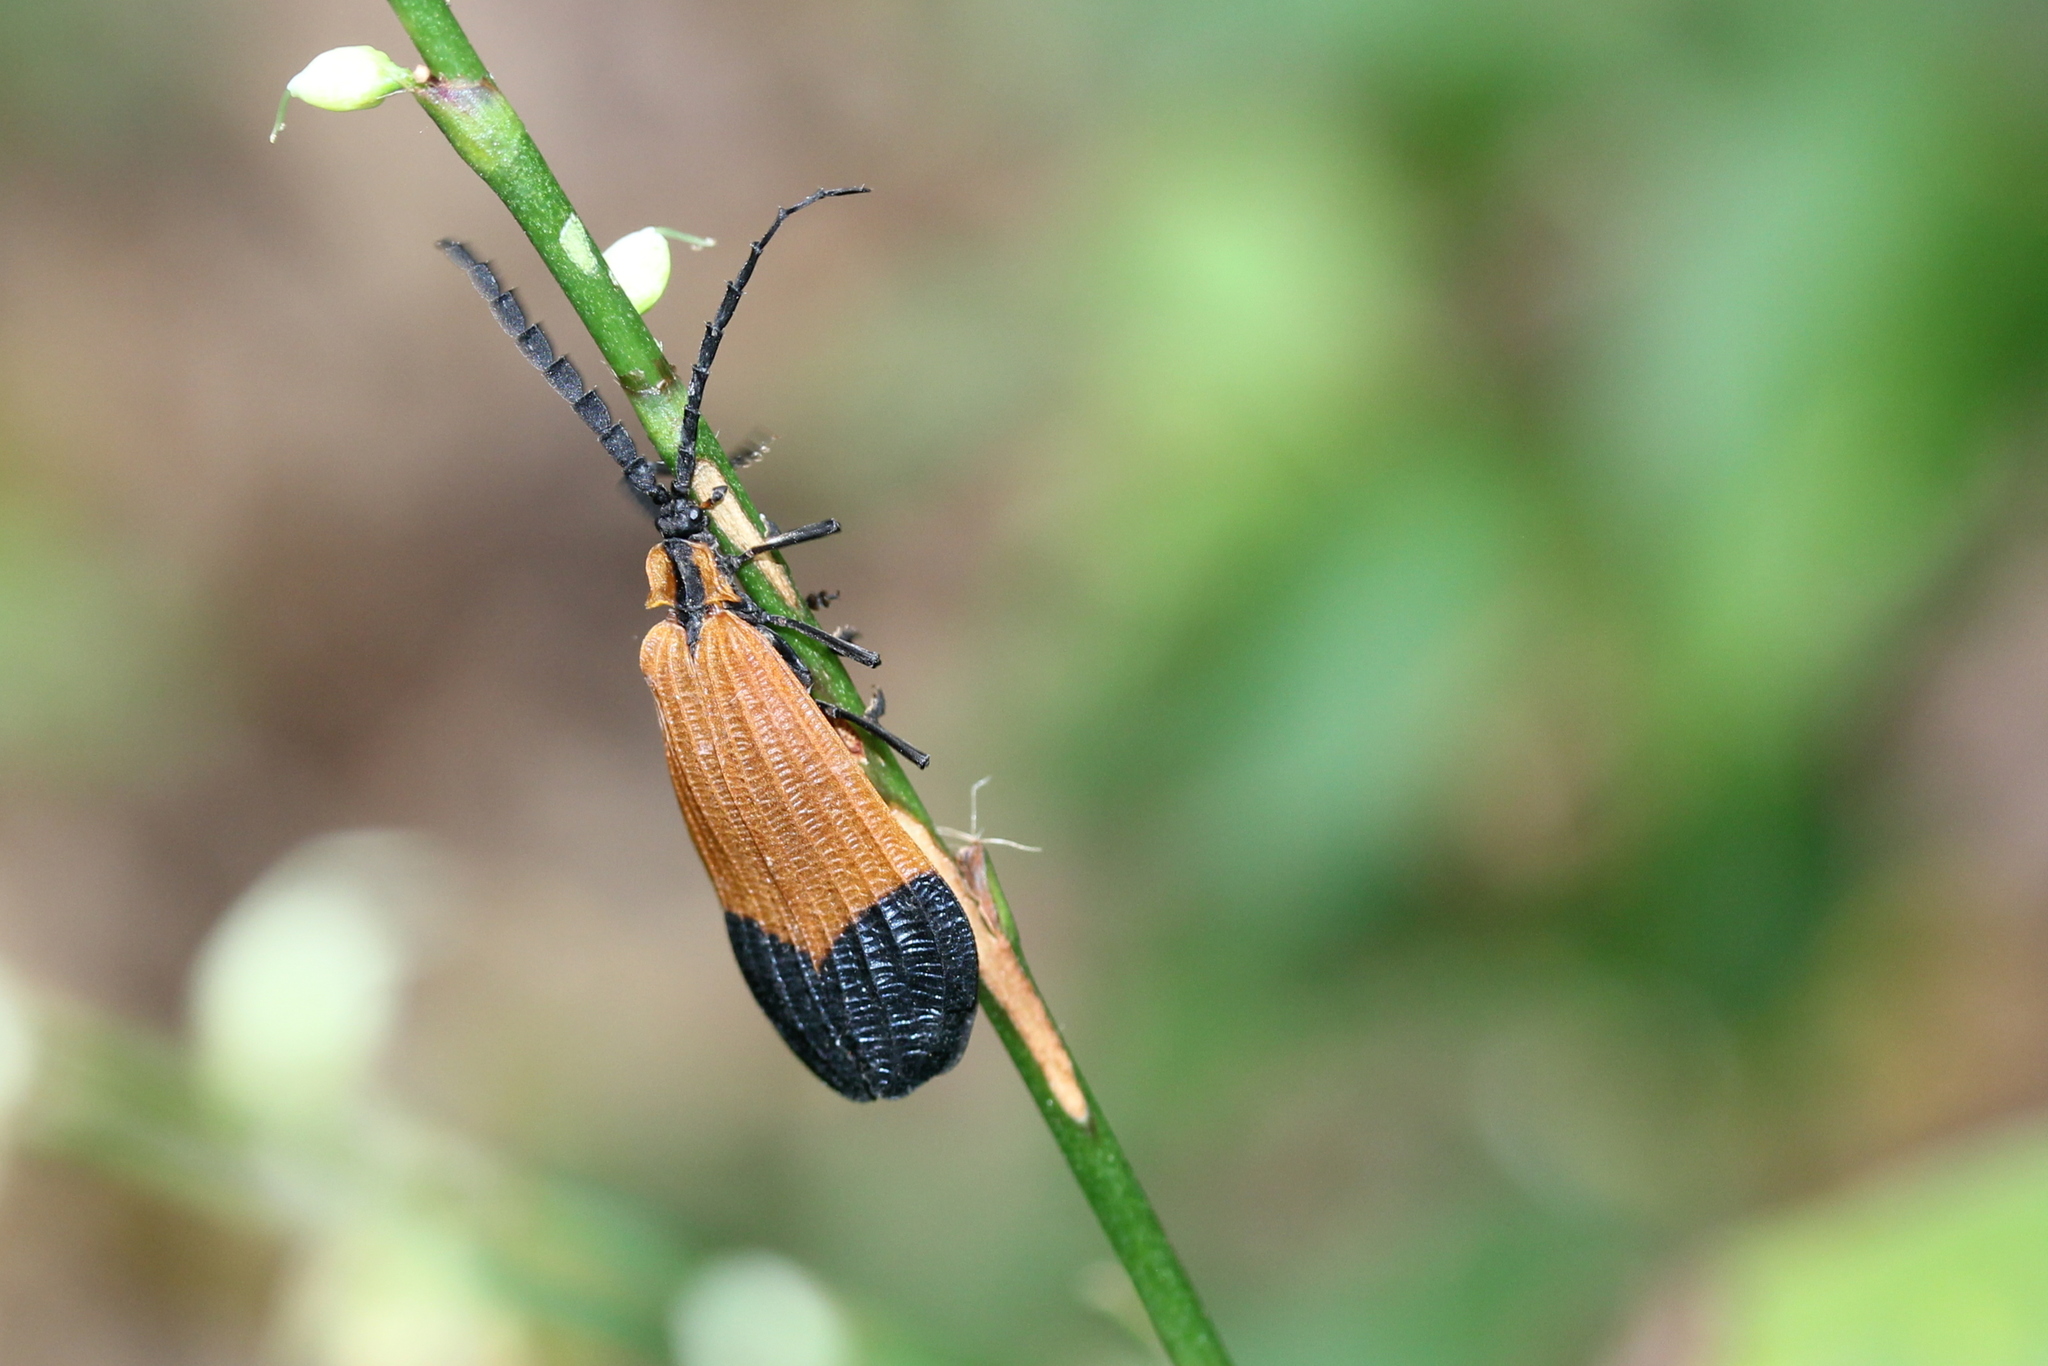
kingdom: Animalia
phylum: Arthropoda
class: Insecta
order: Coleoptera
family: Lycidae
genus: Calopteron
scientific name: Calopteron terminale
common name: End band net-winged beetle
